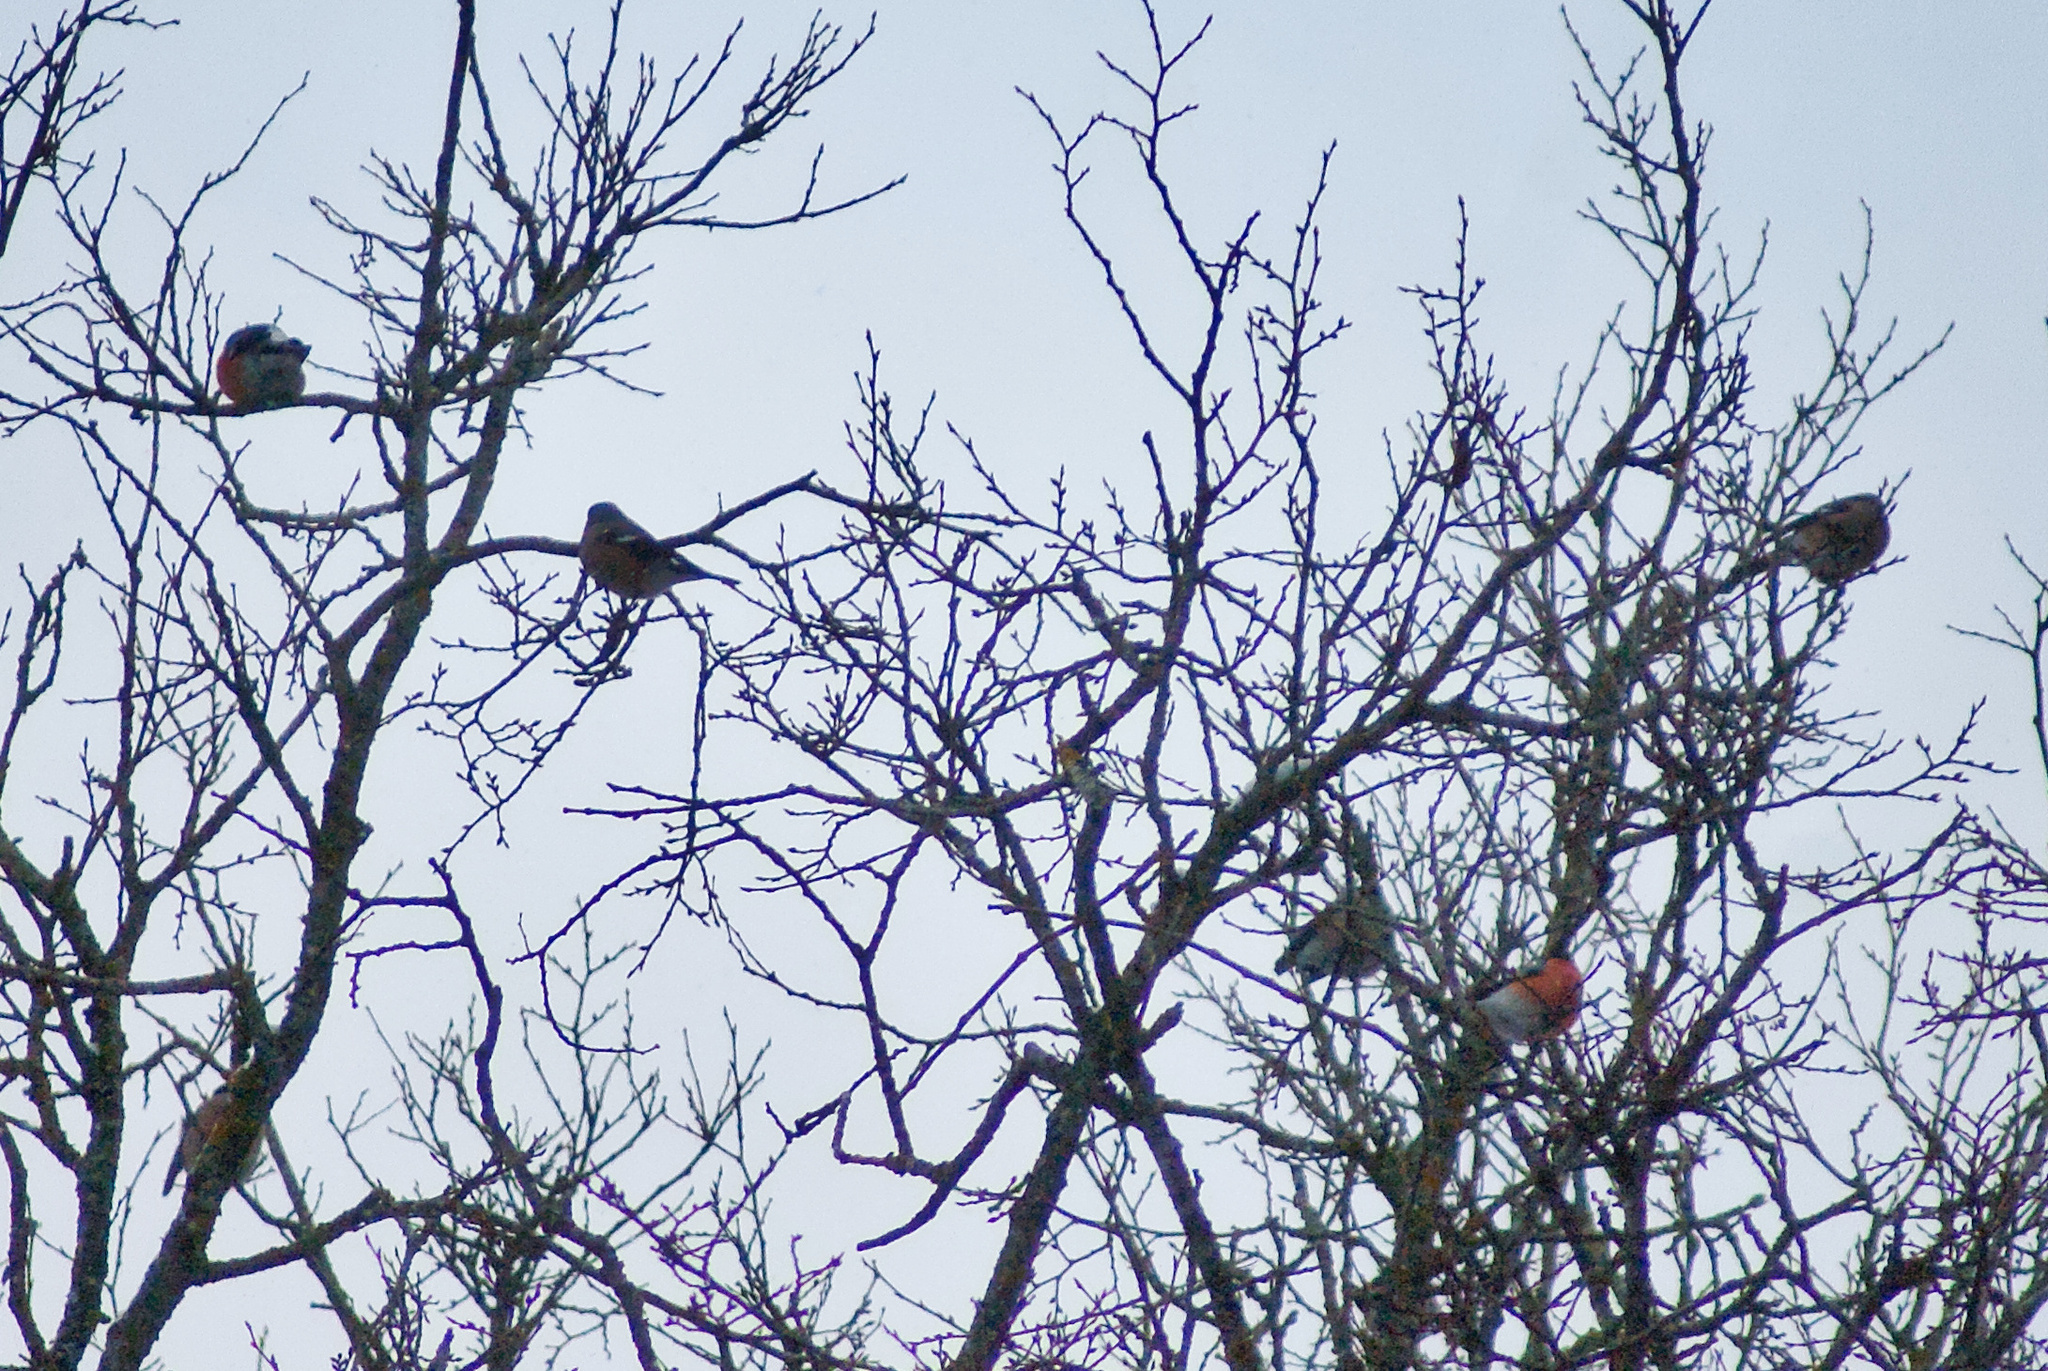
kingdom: Animalia
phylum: Chordata
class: Aves
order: Passeriformes
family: Fringillidae
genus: Pyrrhula
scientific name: Pyrrhula pyrrhula
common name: Eurasian bullfinch
